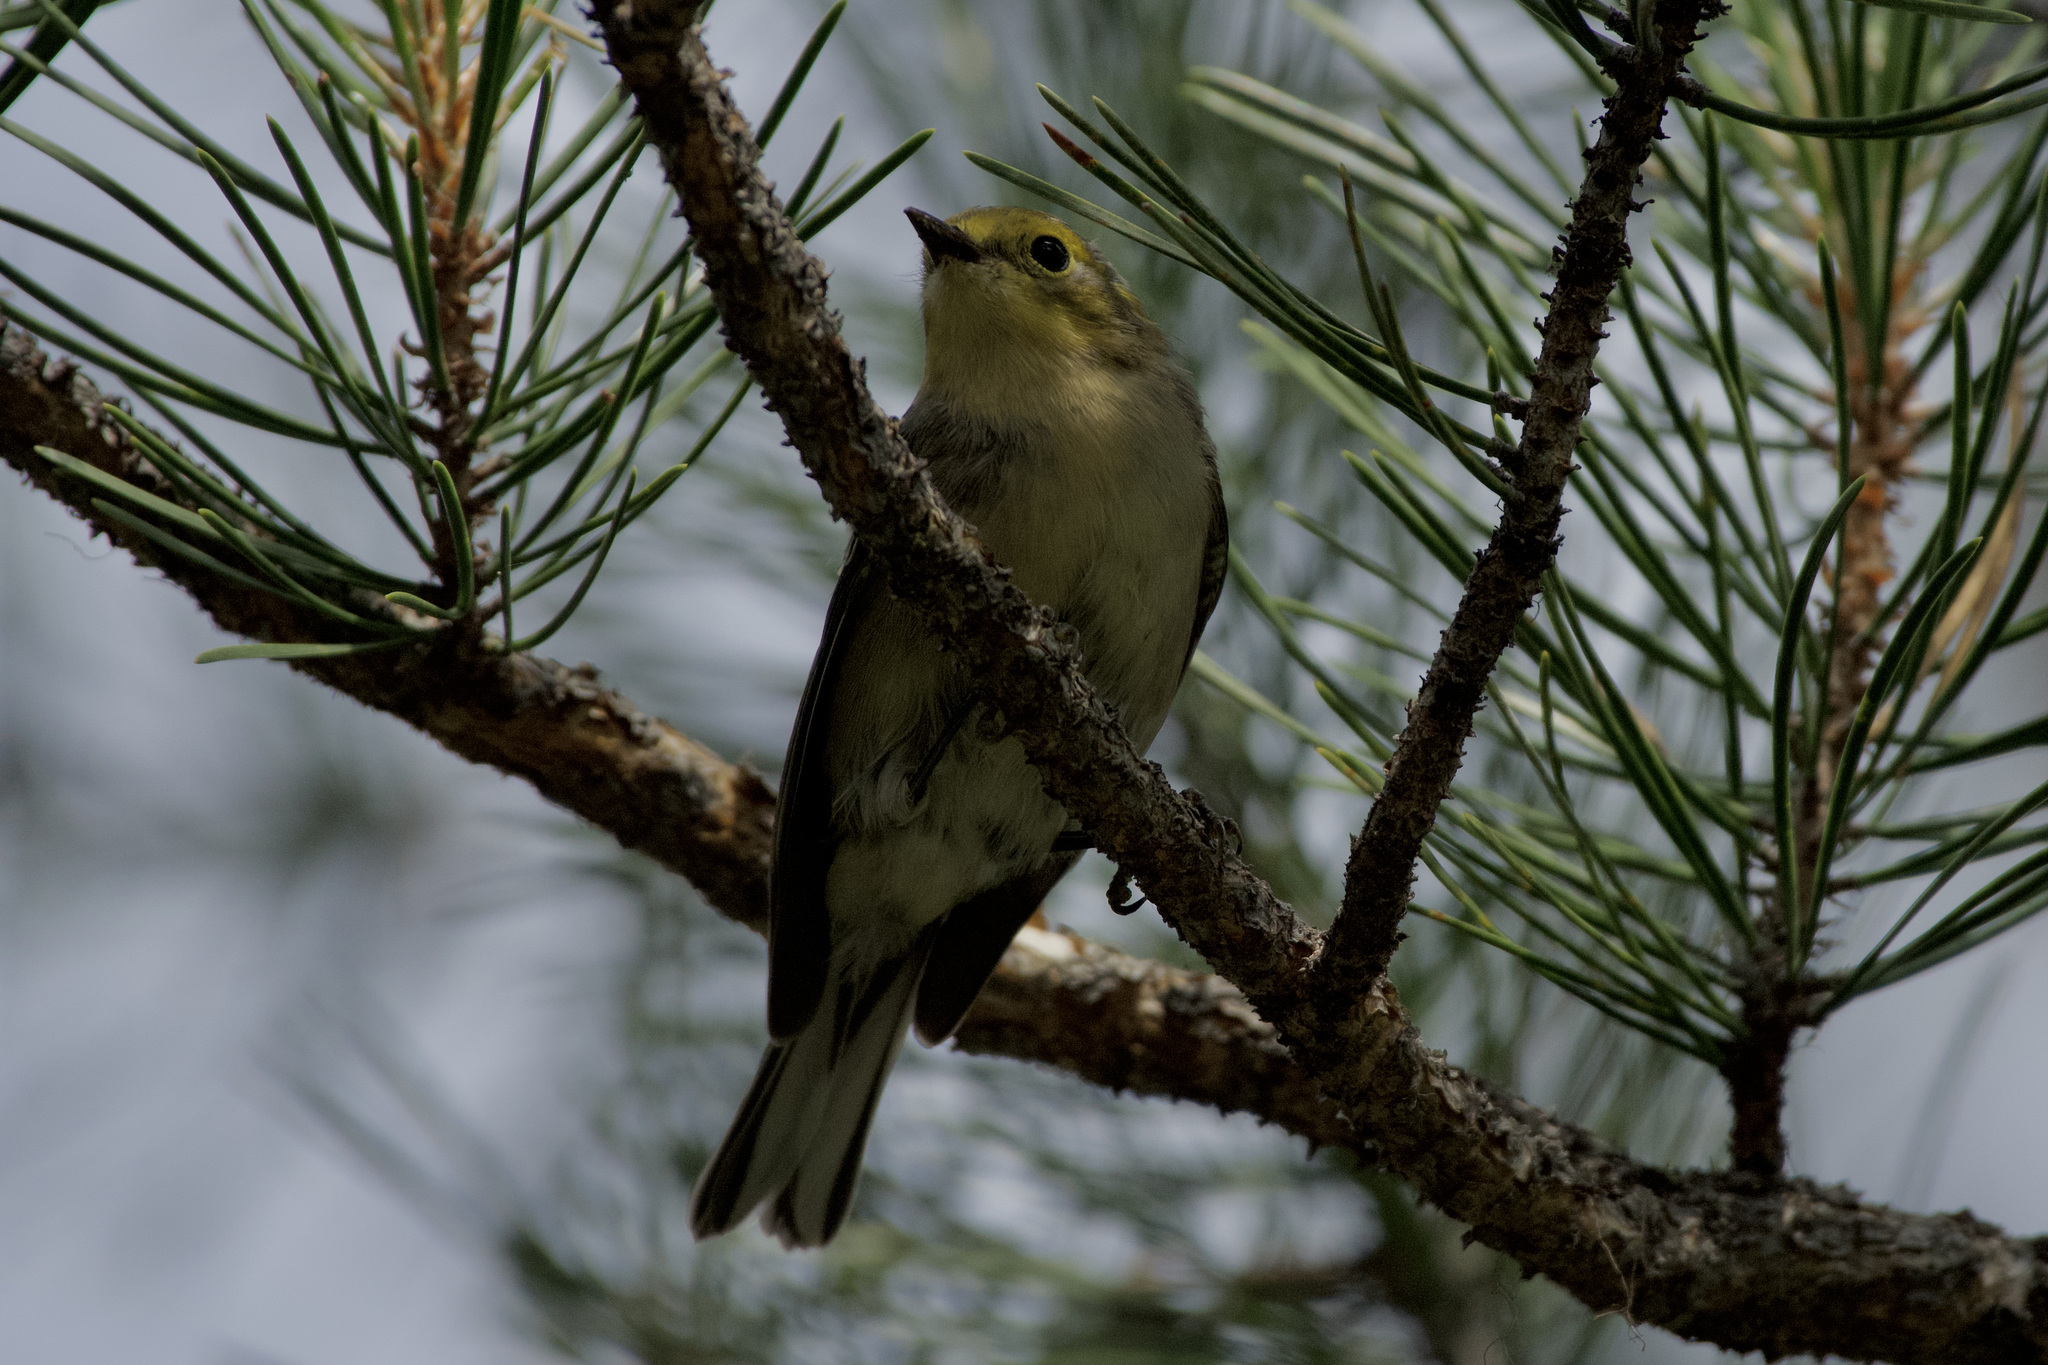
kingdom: Animalia
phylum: Chordata
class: Aves
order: Passeriformes
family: Parulidae
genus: Setophaga
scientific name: Setophaga occidentalis
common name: Hermit warbler
